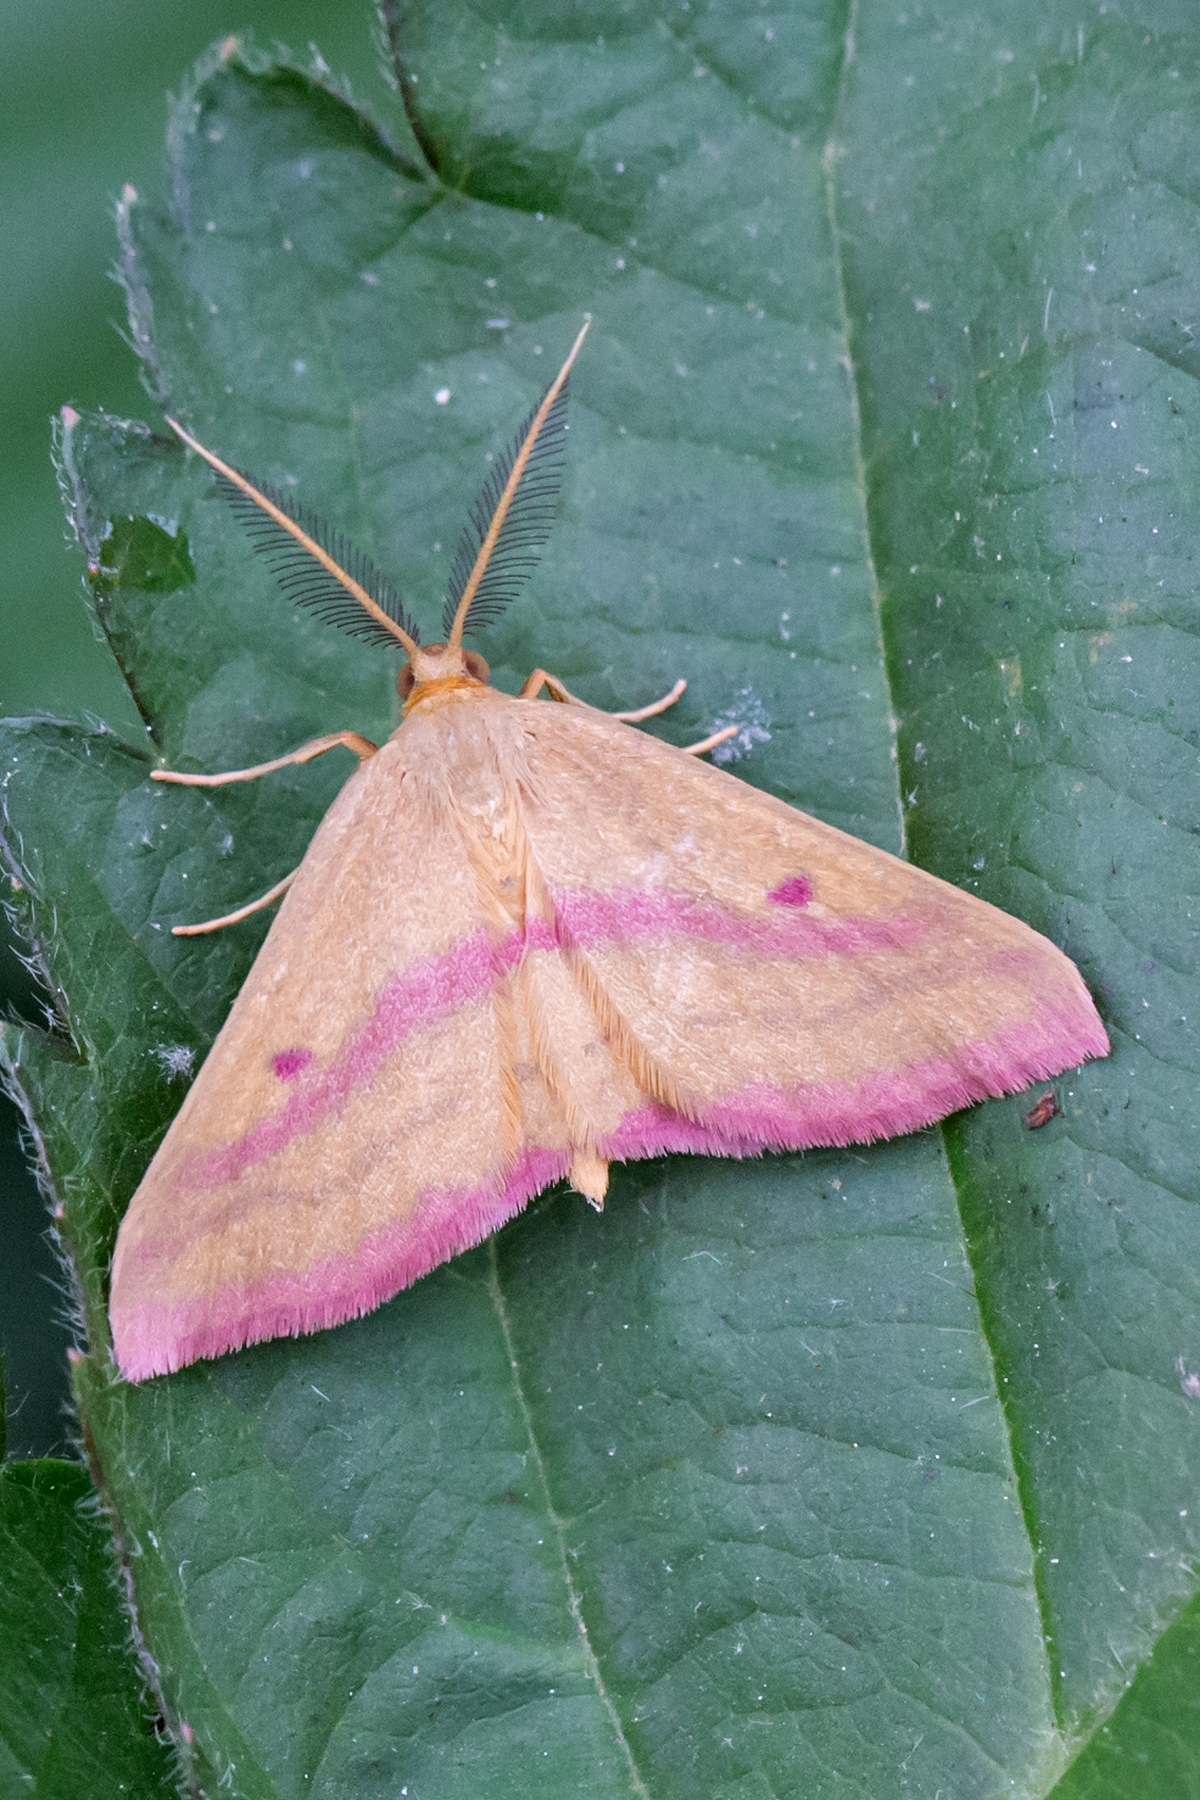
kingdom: Animalia
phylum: Arthropoda
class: Insecta
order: Lepidoptera
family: Geometridae
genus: Haematopis
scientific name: Haematopis grataria
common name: Chickweed geometer
